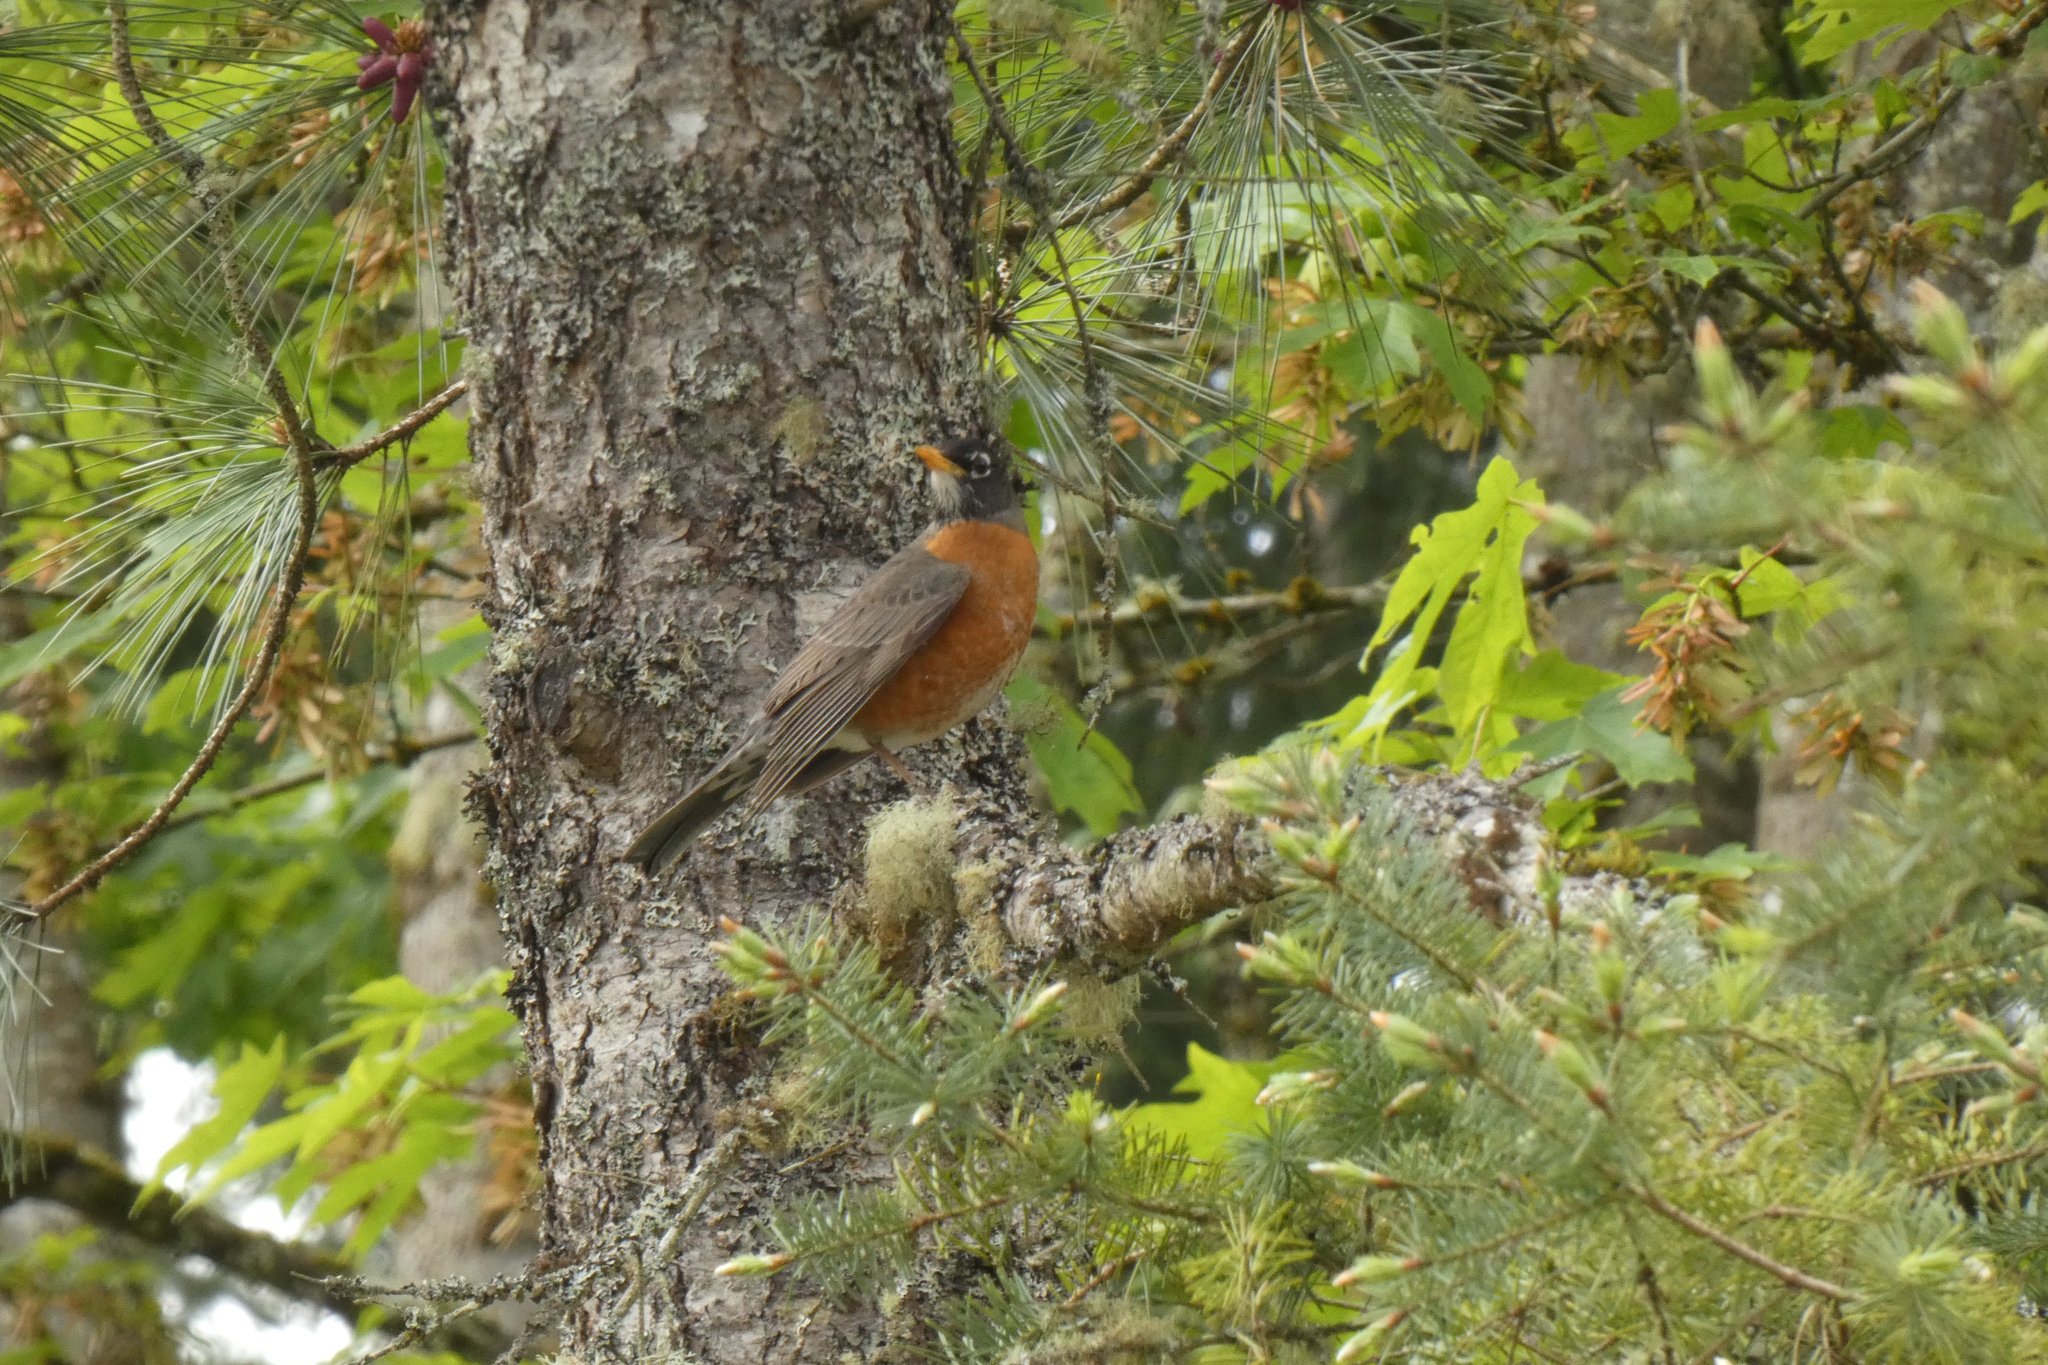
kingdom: Animalia
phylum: Chordata
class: Aves
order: Passeriformes
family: Turdidae
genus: Turdus
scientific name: Turdus migratorius
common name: American robin
